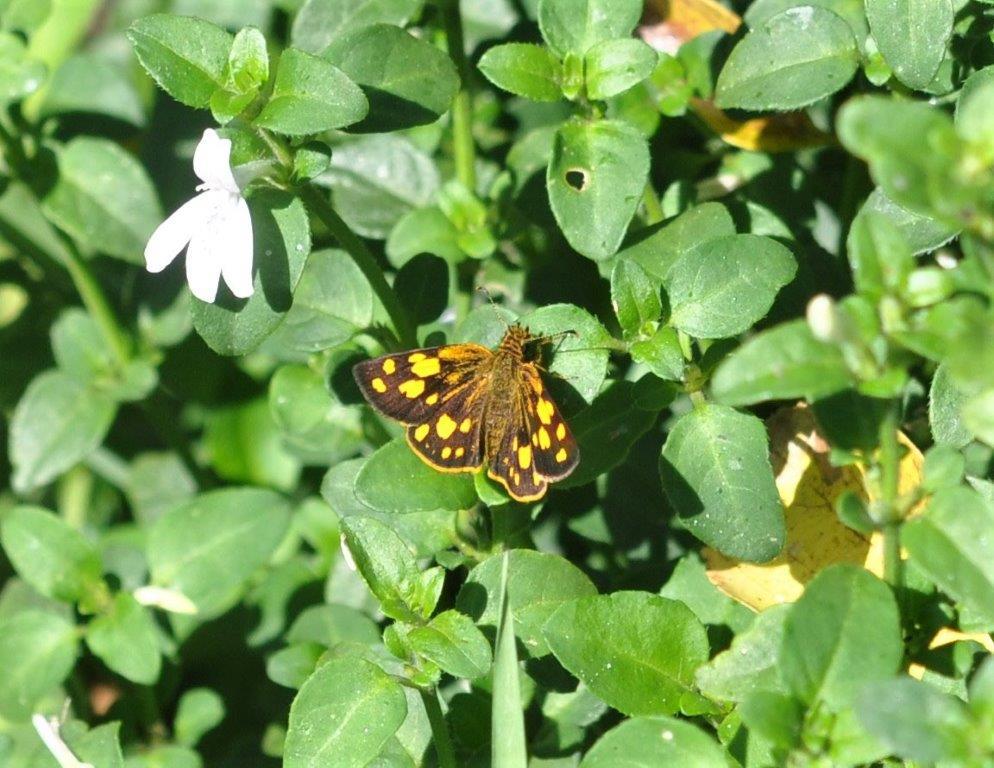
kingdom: Animalia
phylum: Arthropoda
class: Insecta
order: Lepidoptera
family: Hesperiidae
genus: Metisella
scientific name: Metisella metis
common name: Western gold-spotted sylph
